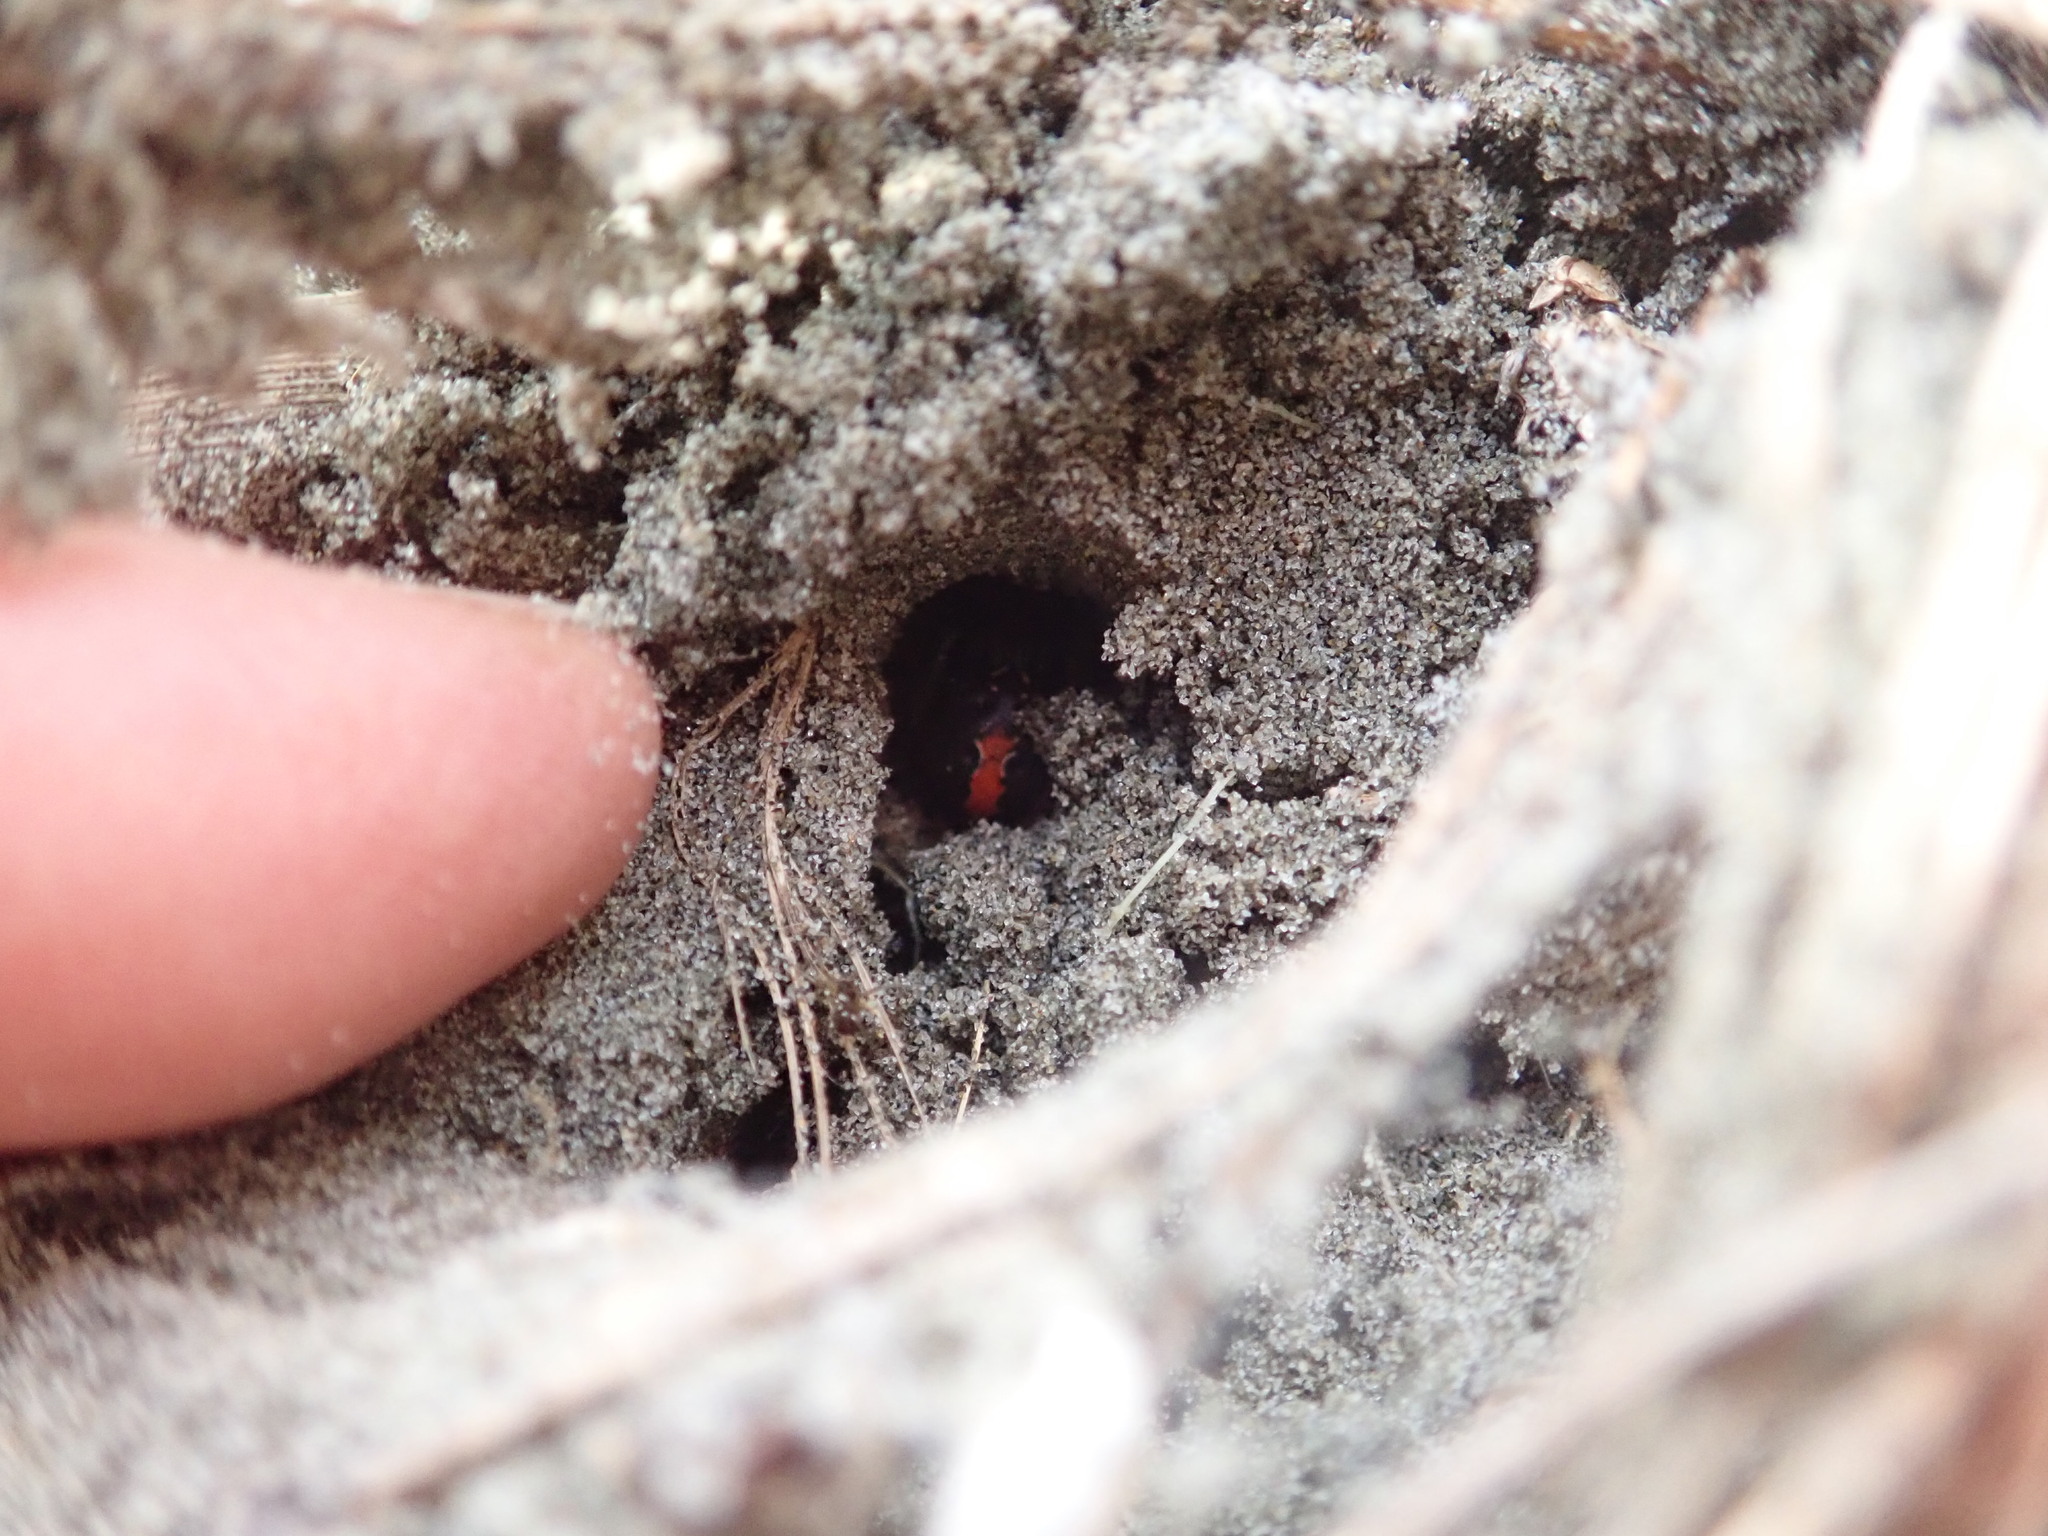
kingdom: Animalia
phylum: Arthropoda
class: Arachnida
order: Araneae
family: Theridiidae
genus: Latrodectus
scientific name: Latrodectus katipo
